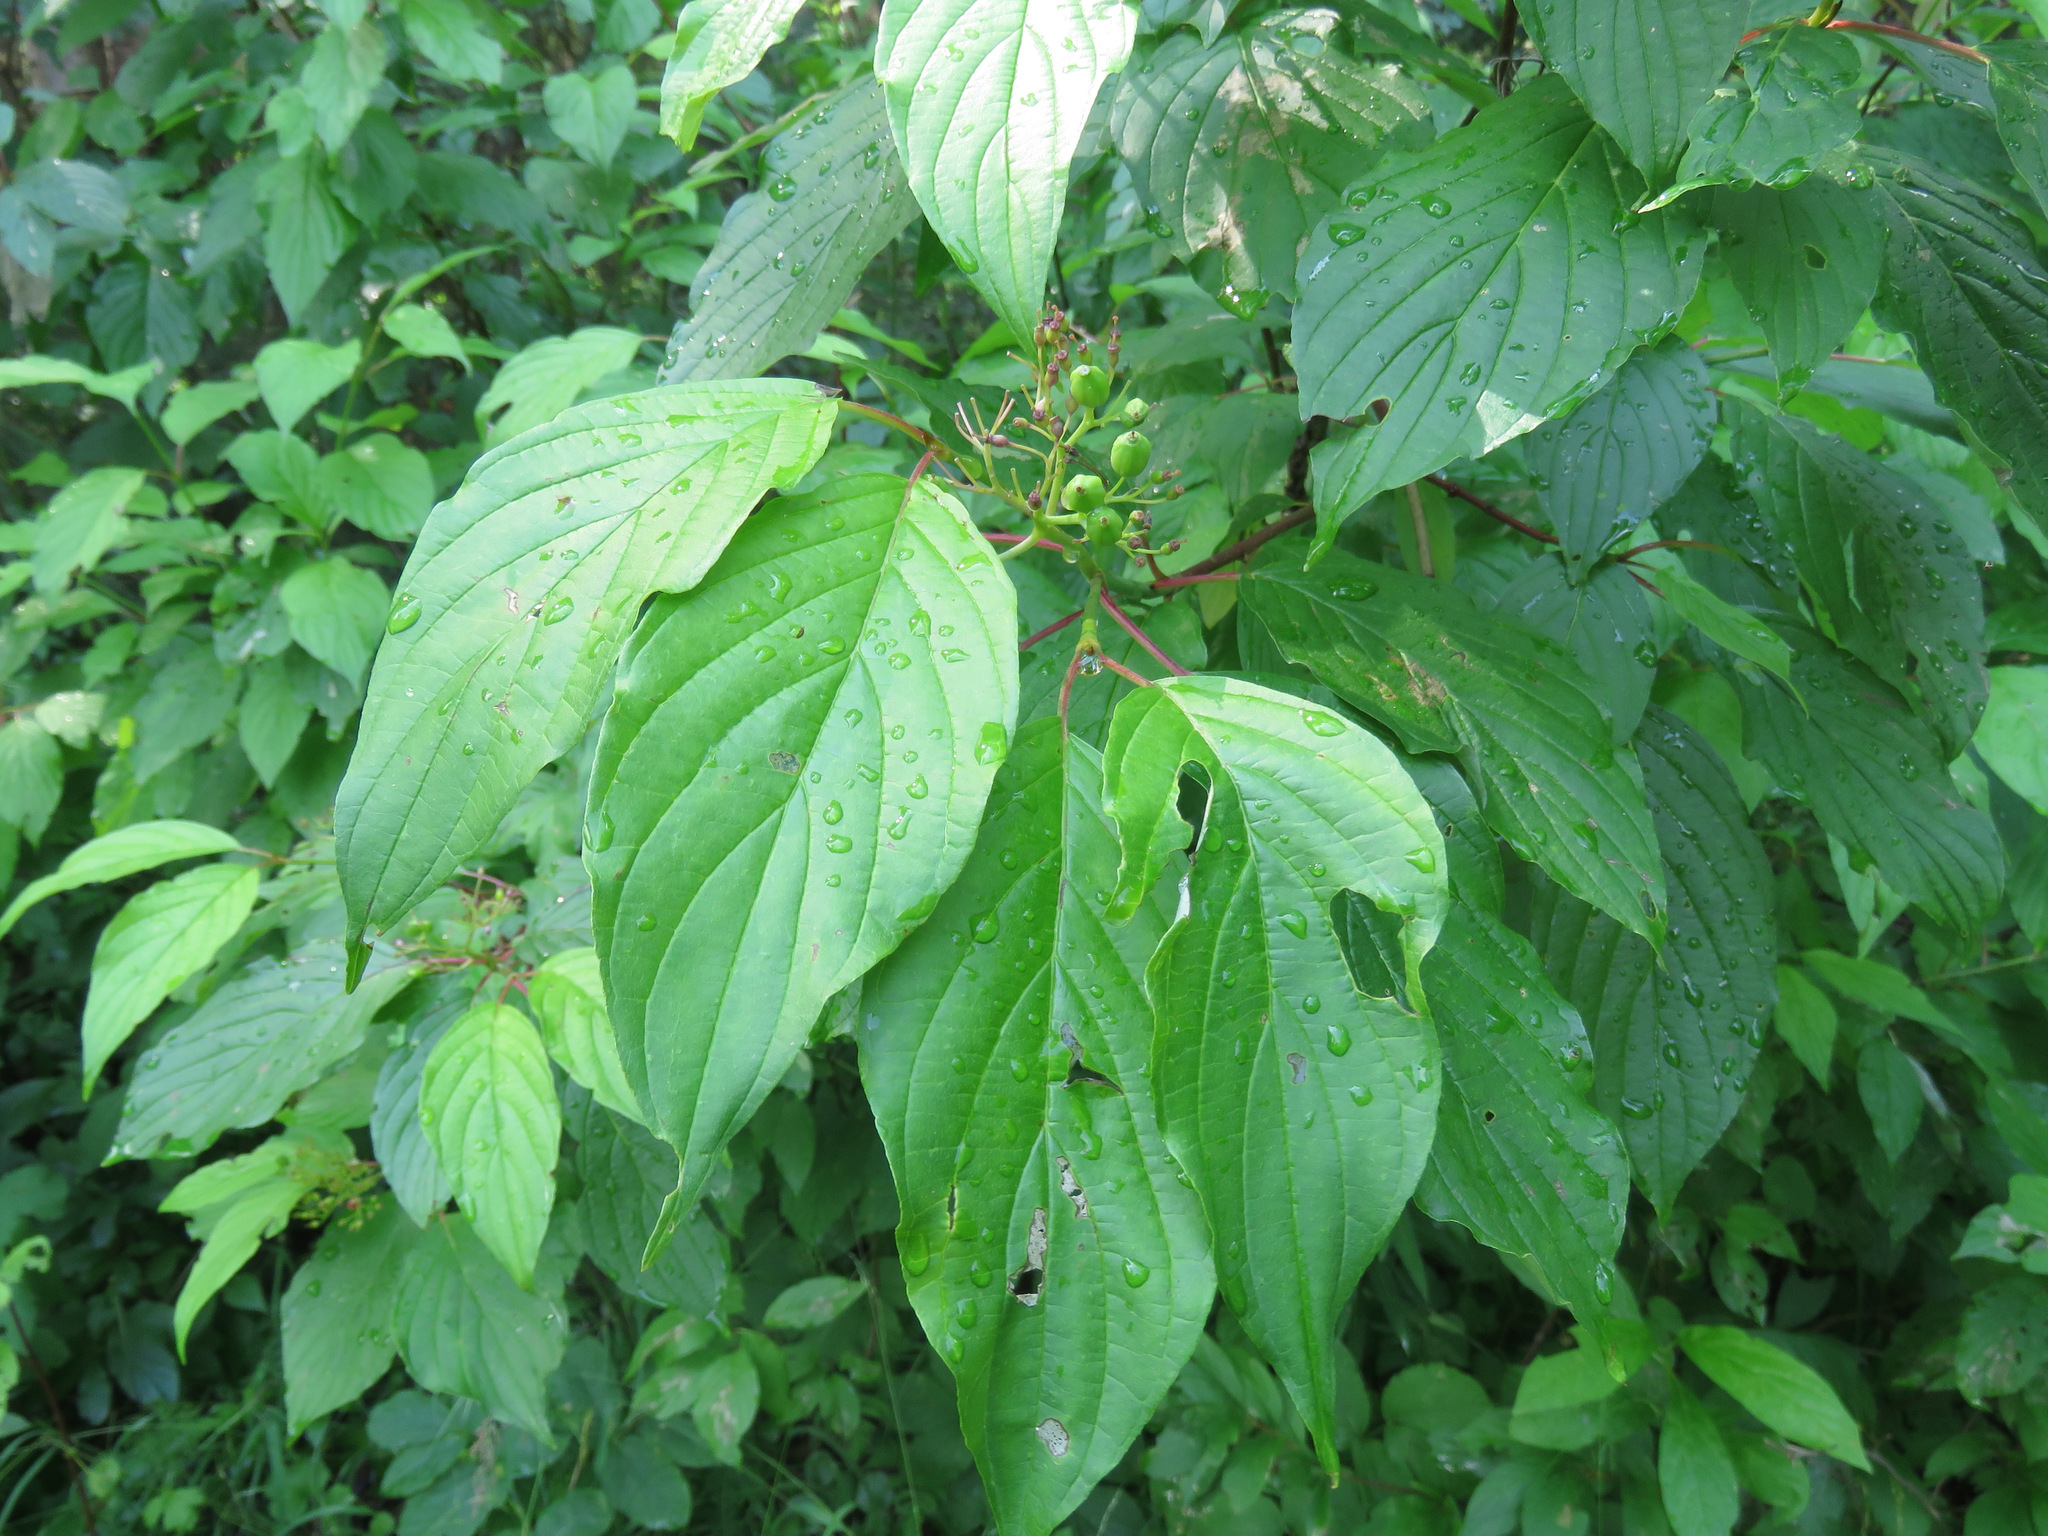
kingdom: Plantae
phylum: Tracheophyta
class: Magnoliopsida
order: Cornales
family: Cornaceae
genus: Cornus
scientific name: Cornus sericea
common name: Red-osier dogwood
